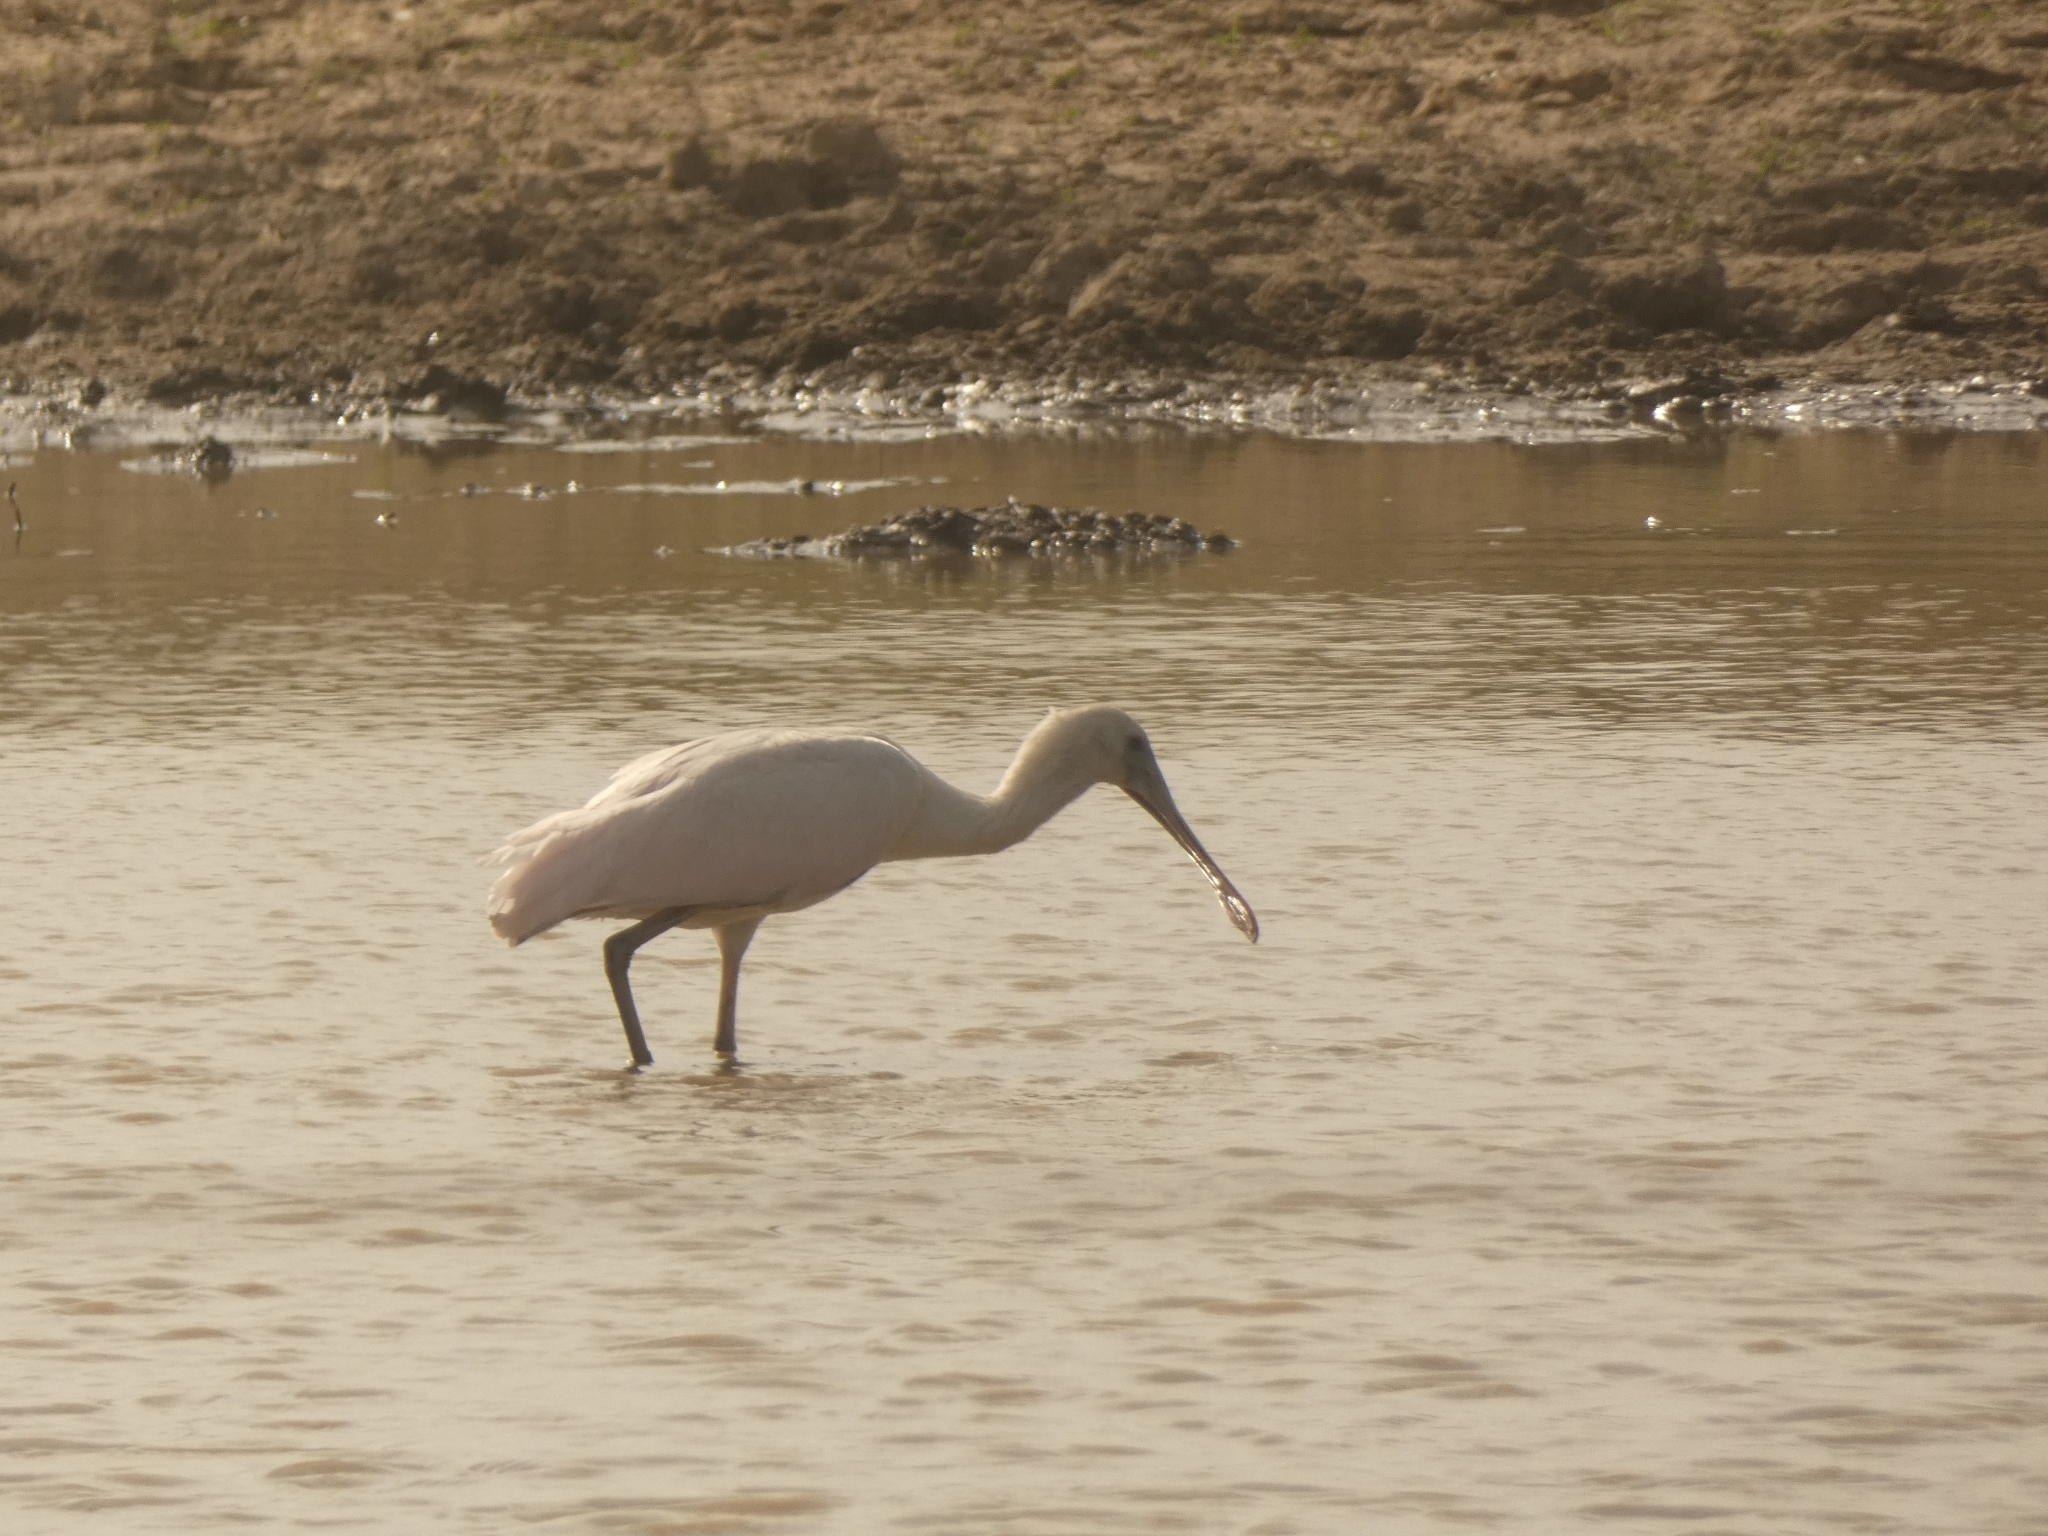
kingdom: Animalia
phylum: Chordata
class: Aves
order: Pelecaniformes
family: Threskiornithidae
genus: Platalea
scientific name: Platalea ajaja
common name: Roseate spoonbill
